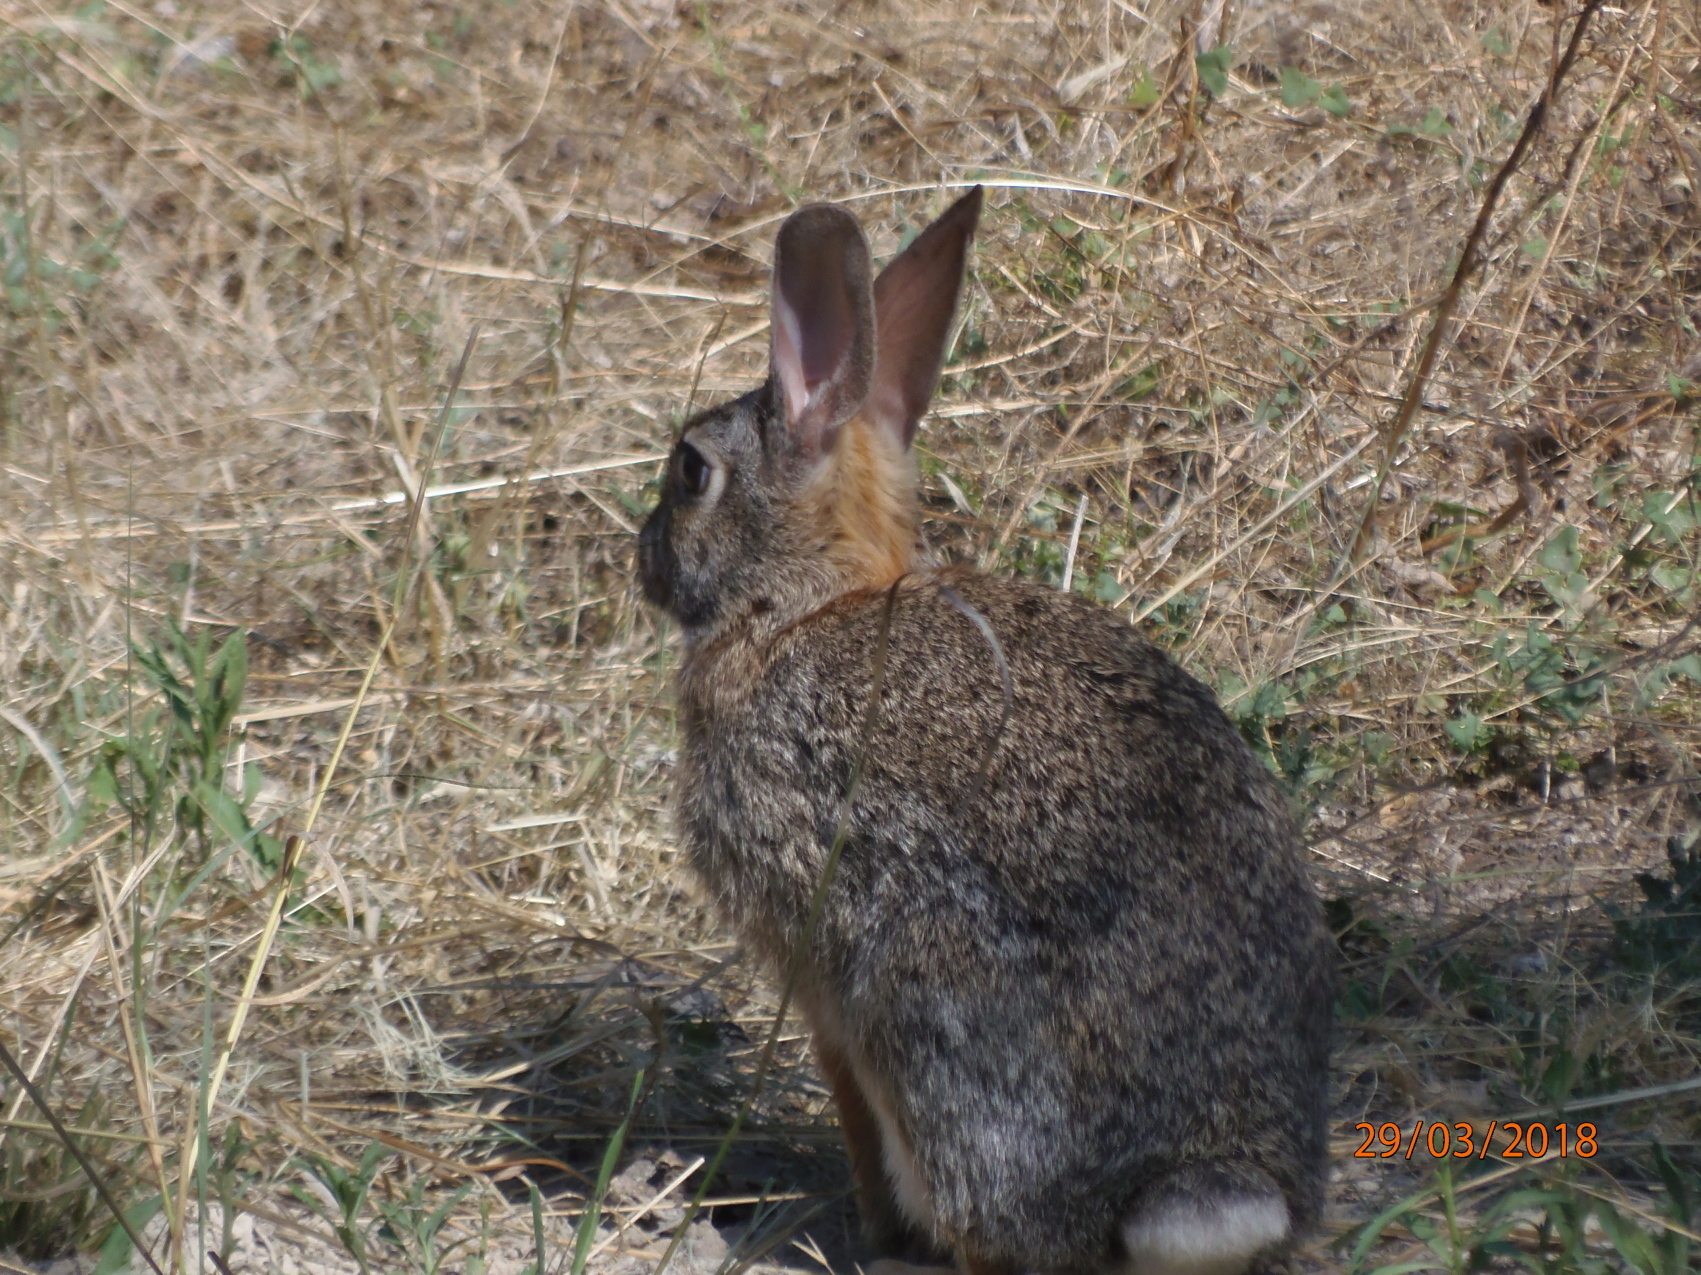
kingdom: Animalia
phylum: Chordata
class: Mammalia
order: Lagomorpha
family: Leporidae
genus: Sylvilagus
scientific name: Sylvilagus floridanus
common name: Eastern cottontail
